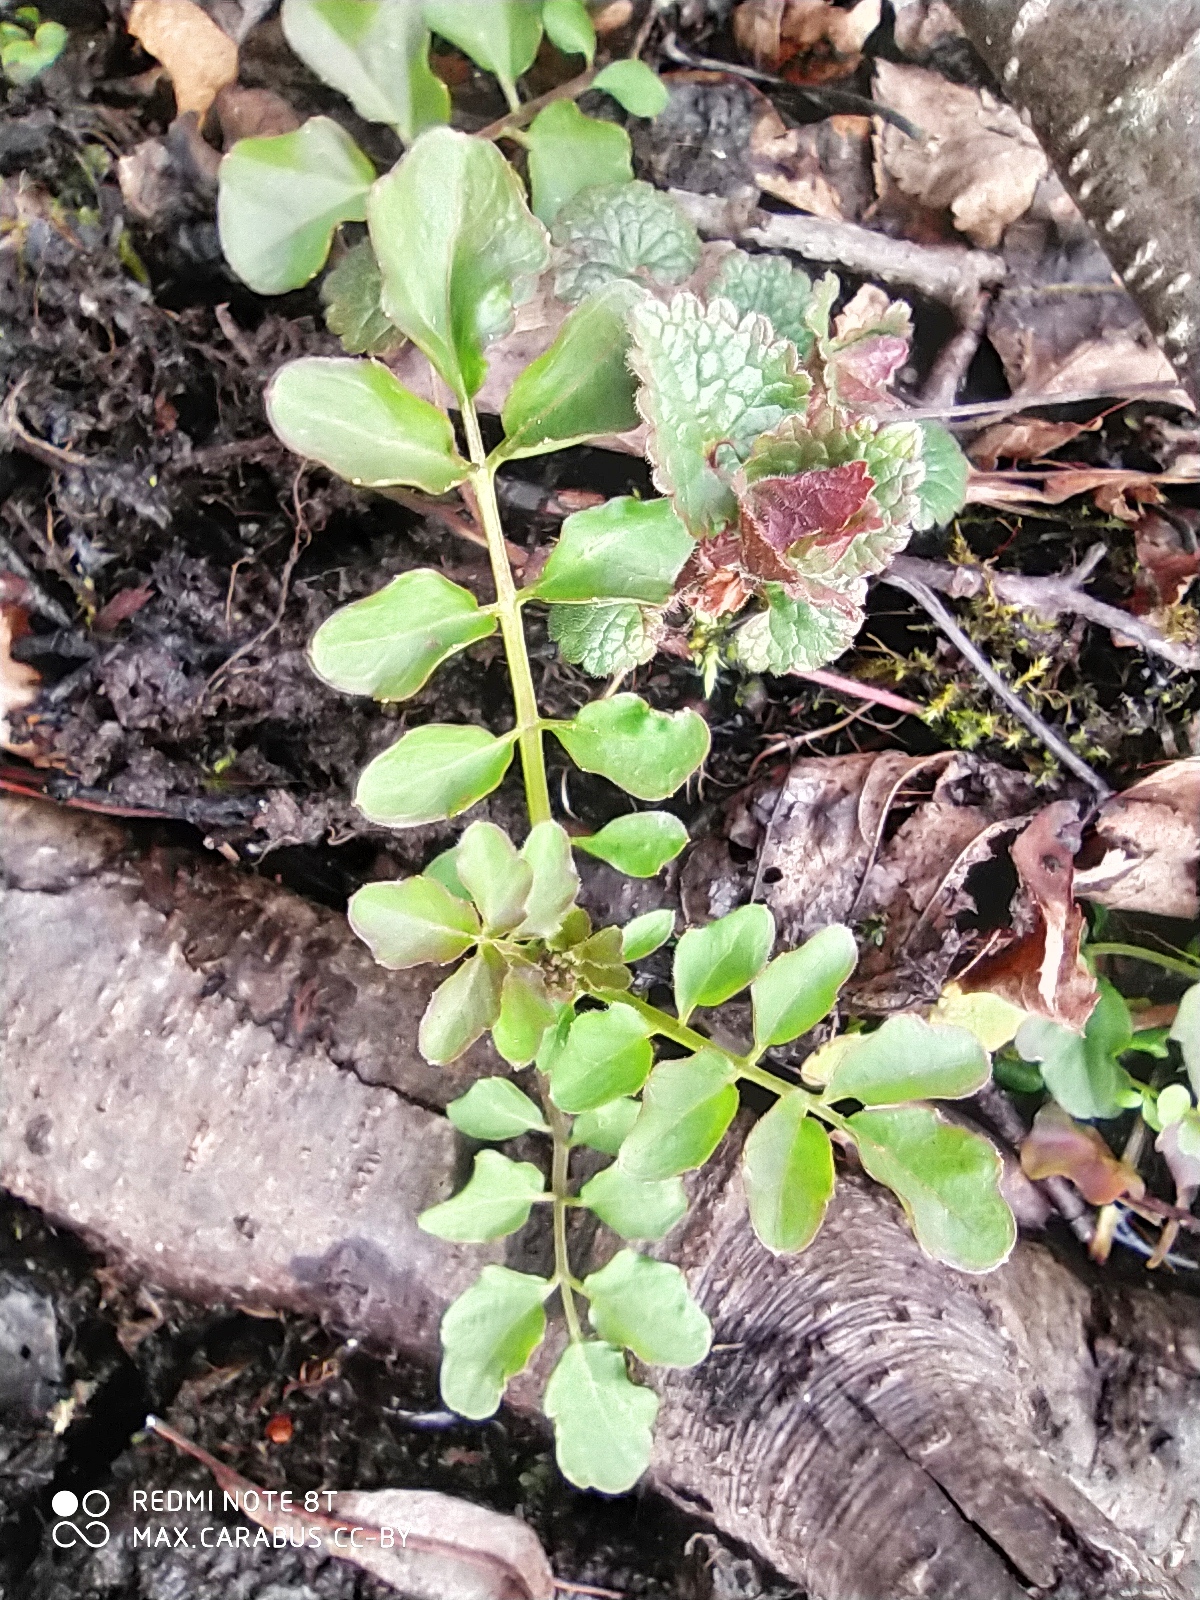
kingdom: Plantae
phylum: Tracheophyta
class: Magnoliopsida
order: Brassicales
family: Brassicaceae
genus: Cardamine
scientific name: Cardamine amara
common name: Large bitter-cress
